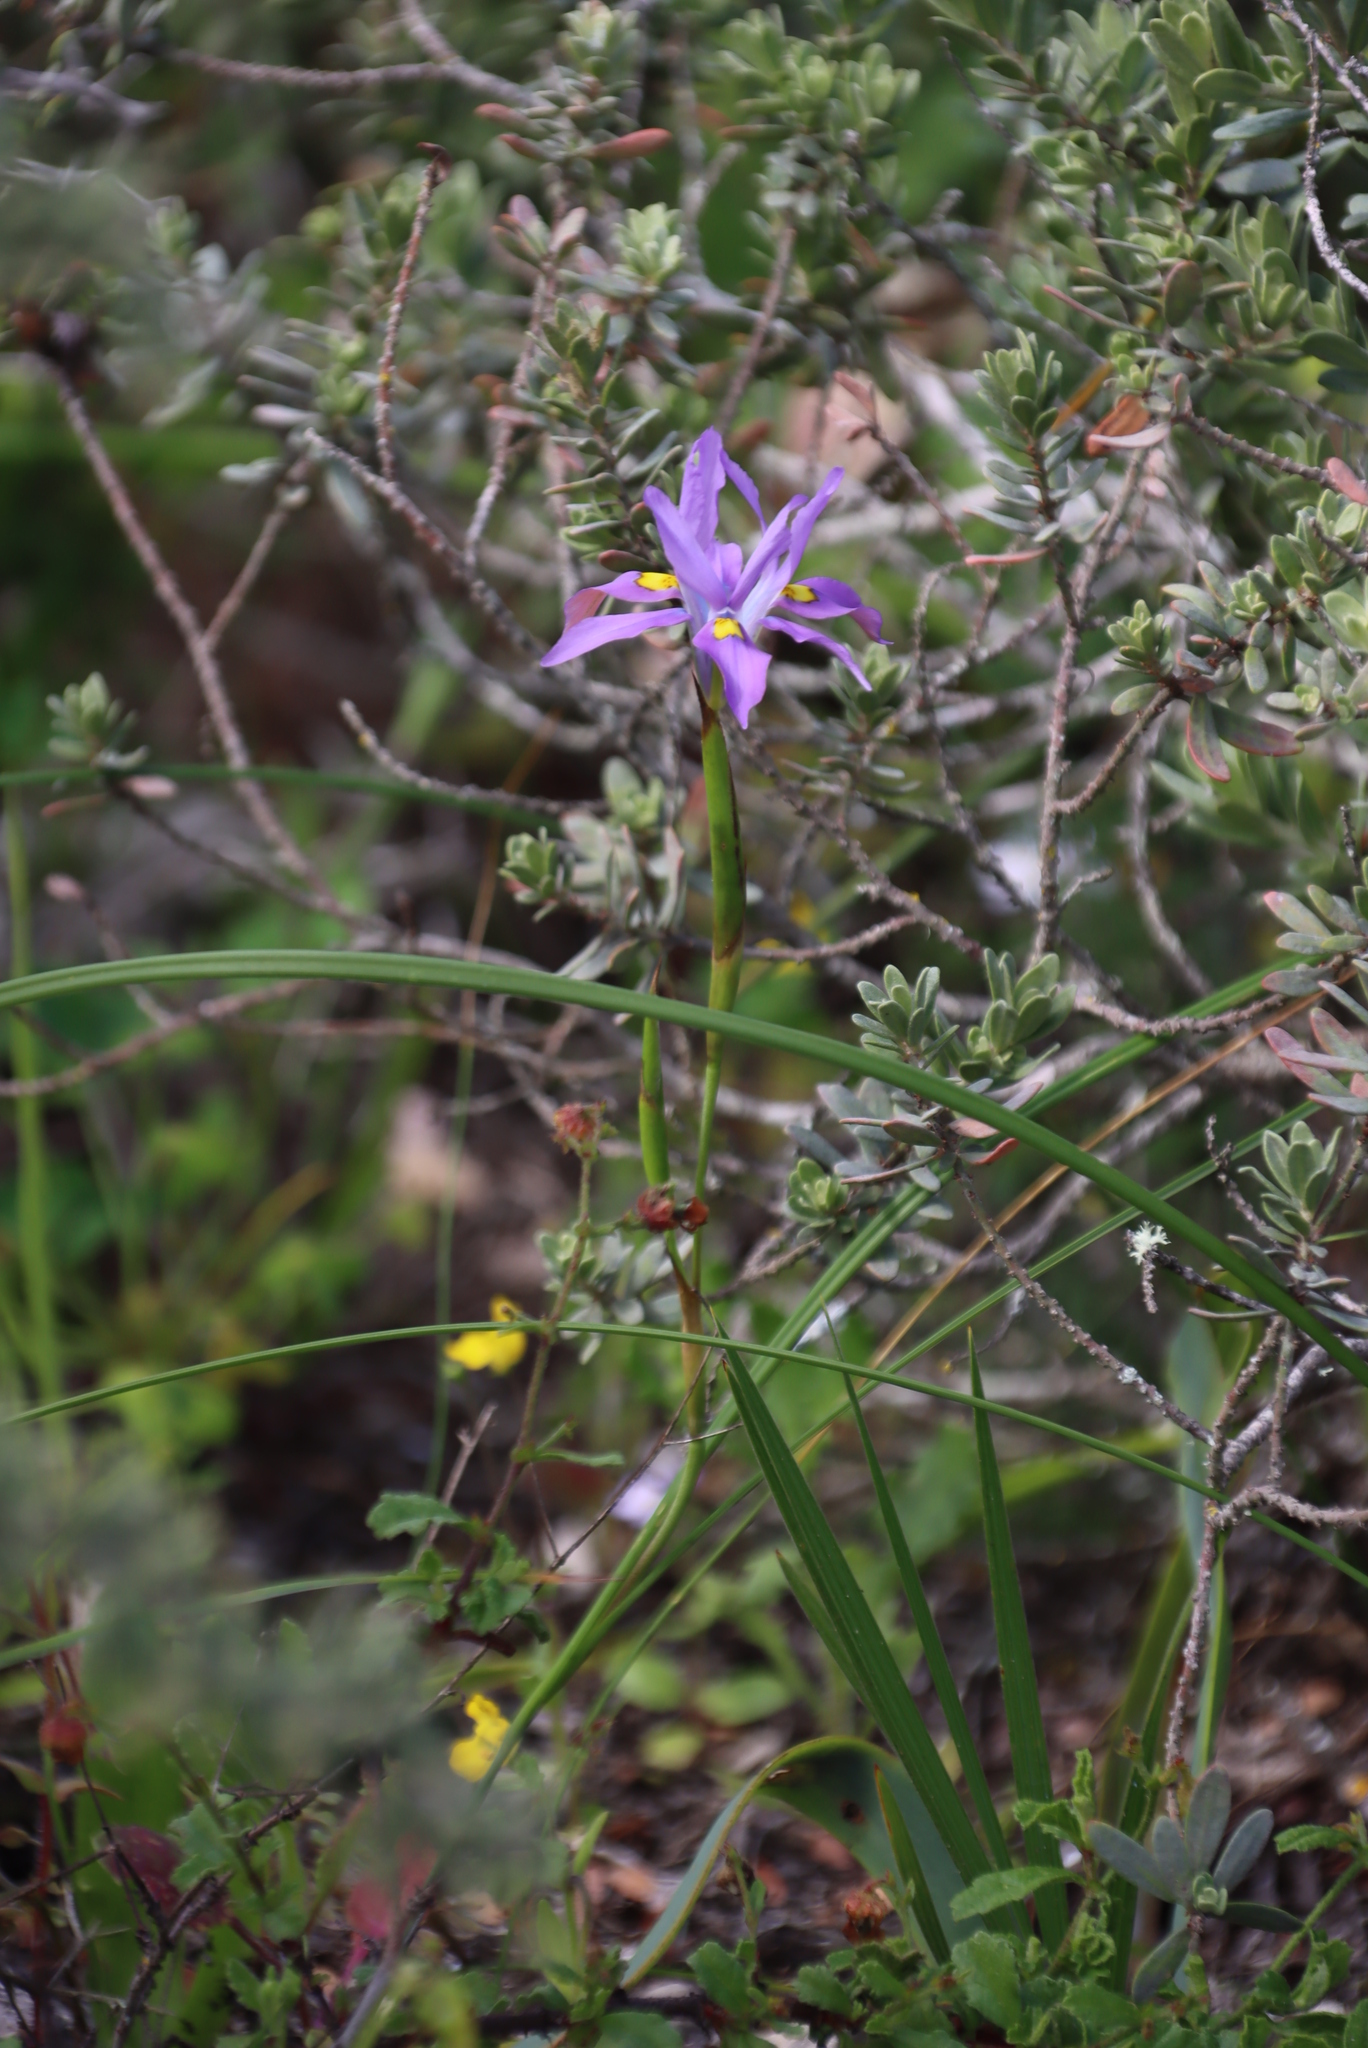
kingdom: Plantae
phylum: Tracheophyta
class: Liliopsida
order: Asparagales
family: Iridaceae
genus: Moraea
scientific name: Moraea fugax
